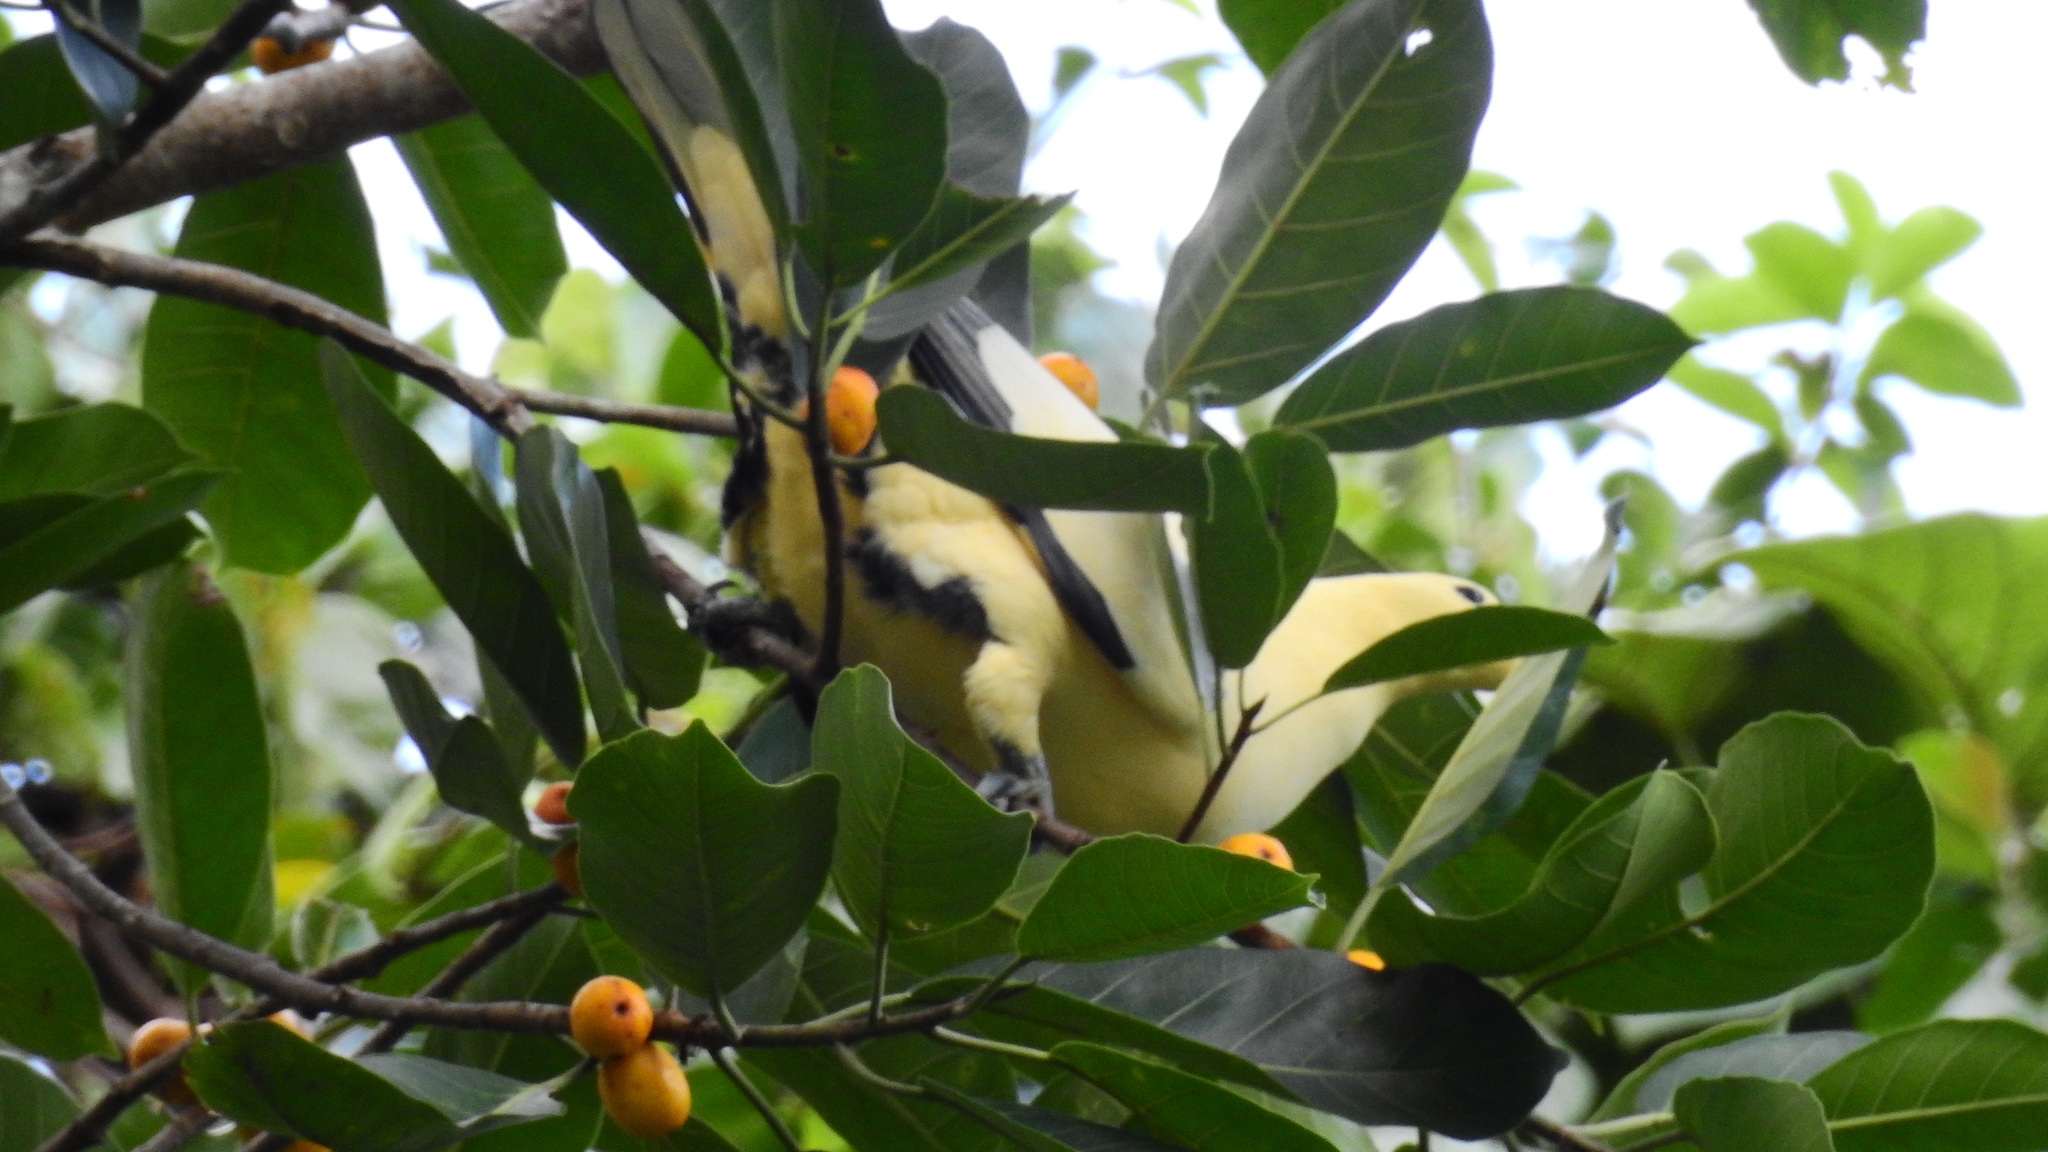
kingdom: Animalia
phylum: Chordata
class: Aves
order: Columbiformes
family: Columbidae
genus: Ducula
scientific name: Ducula luctuosa
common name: Silver-tipped imperial pigeon
